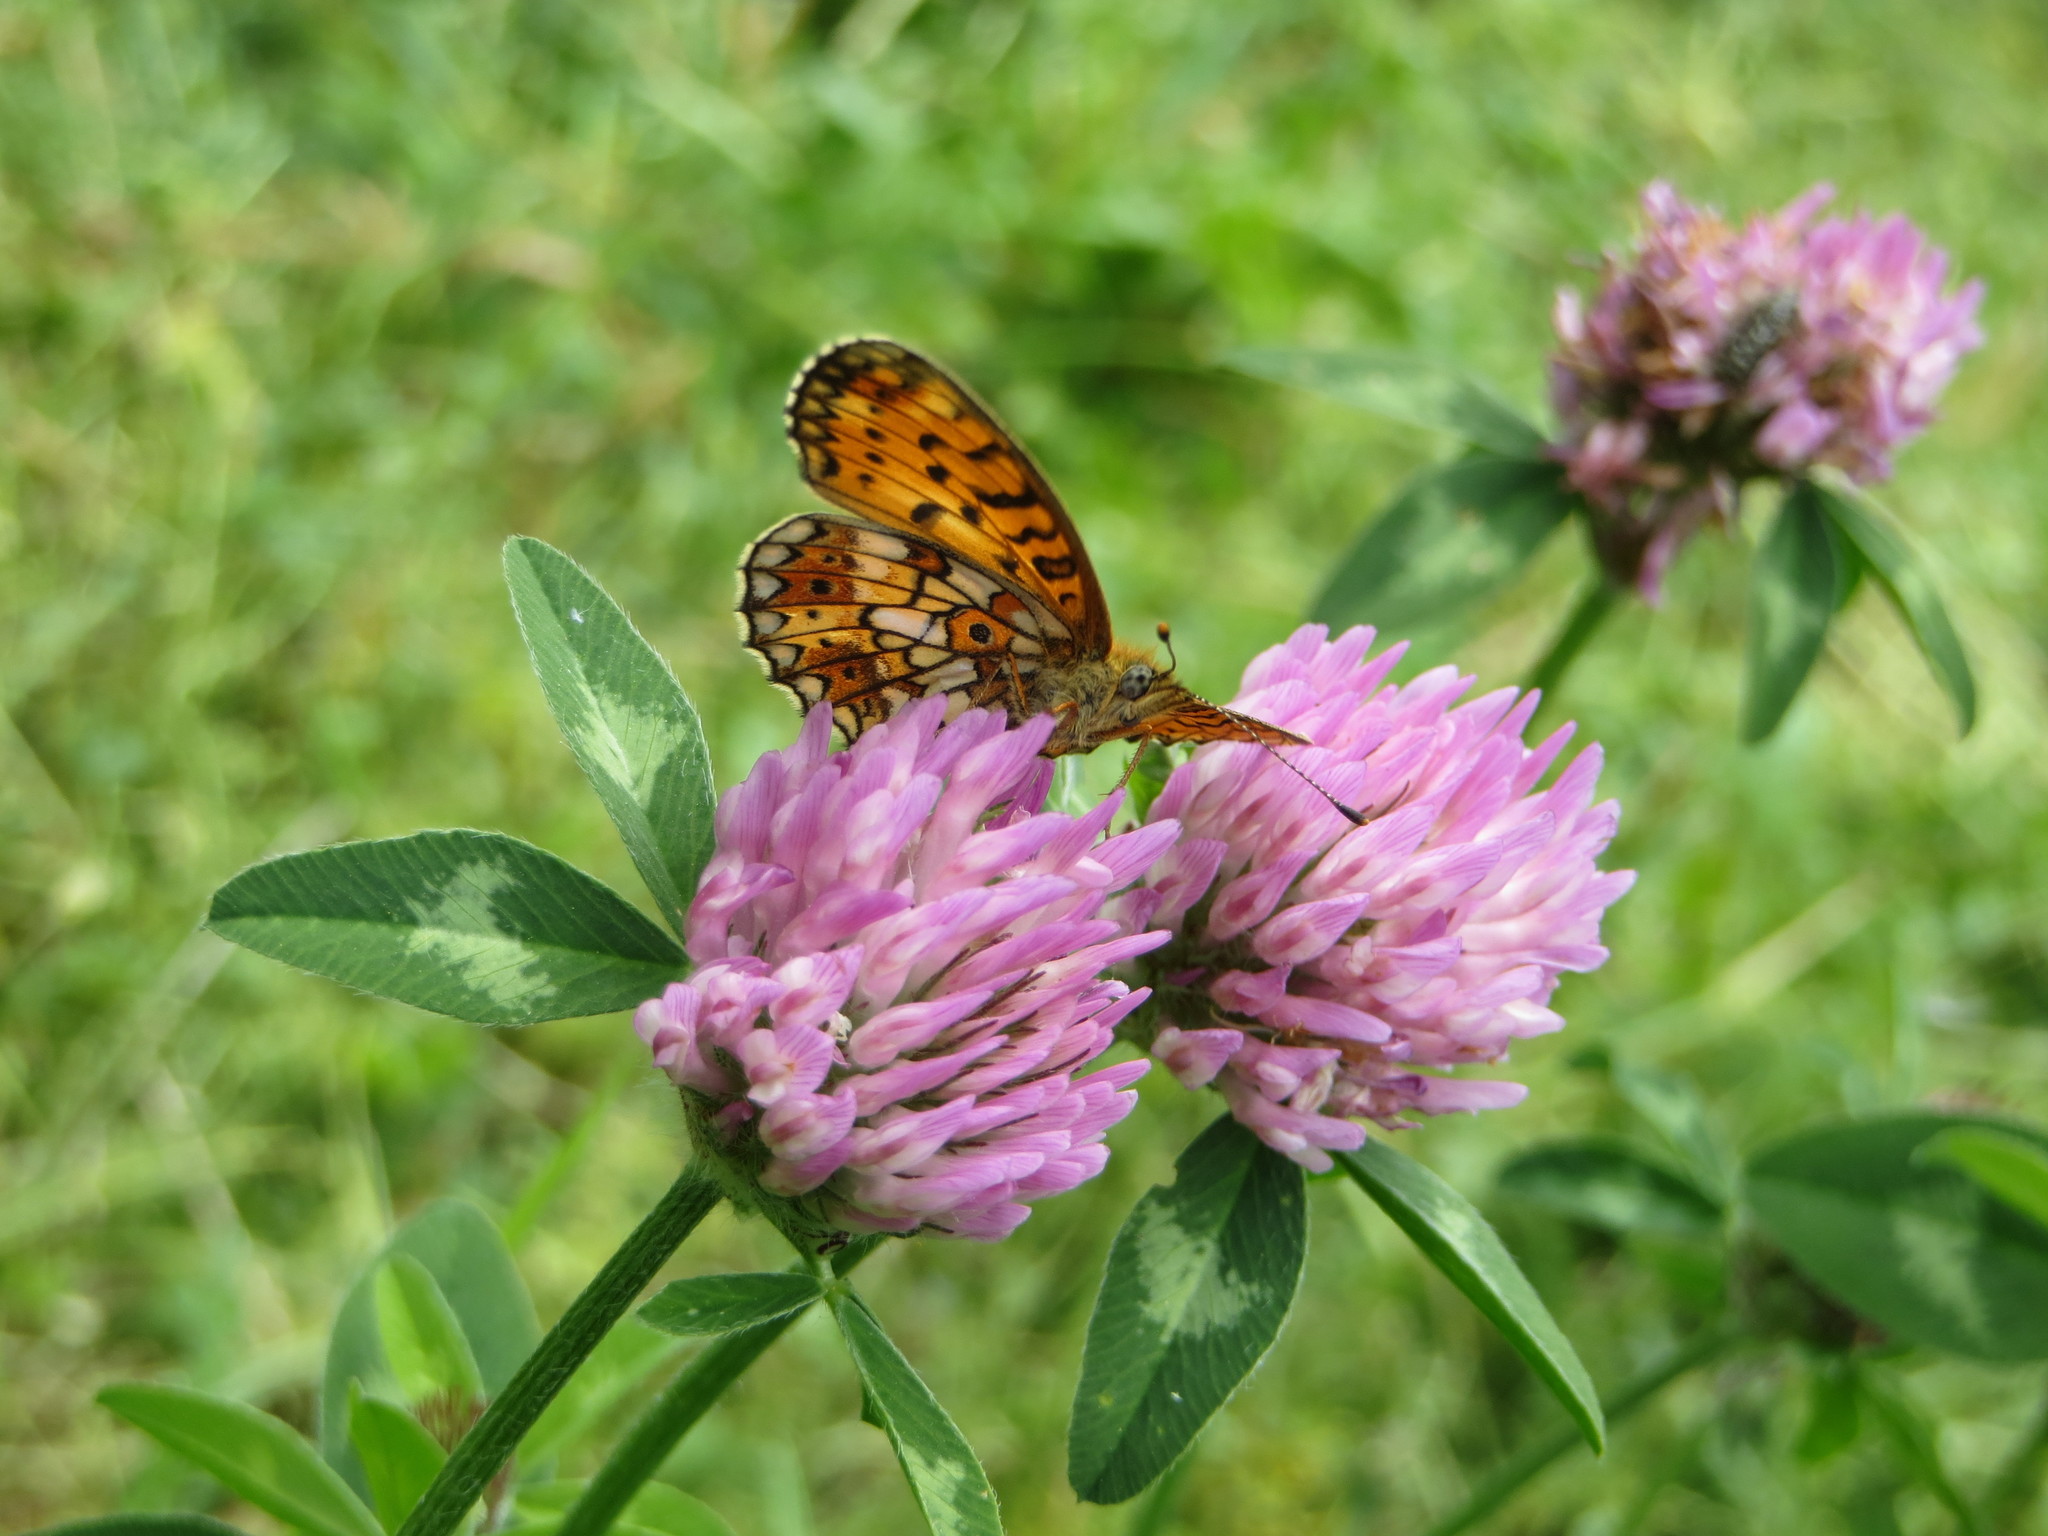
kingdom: Animalia
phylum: Arthropoda
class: Insecta
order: Lepidoptera
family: Nymphalidae
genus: Boloria
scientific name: Boloria selene
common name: Small pearl-bordered fritillary
